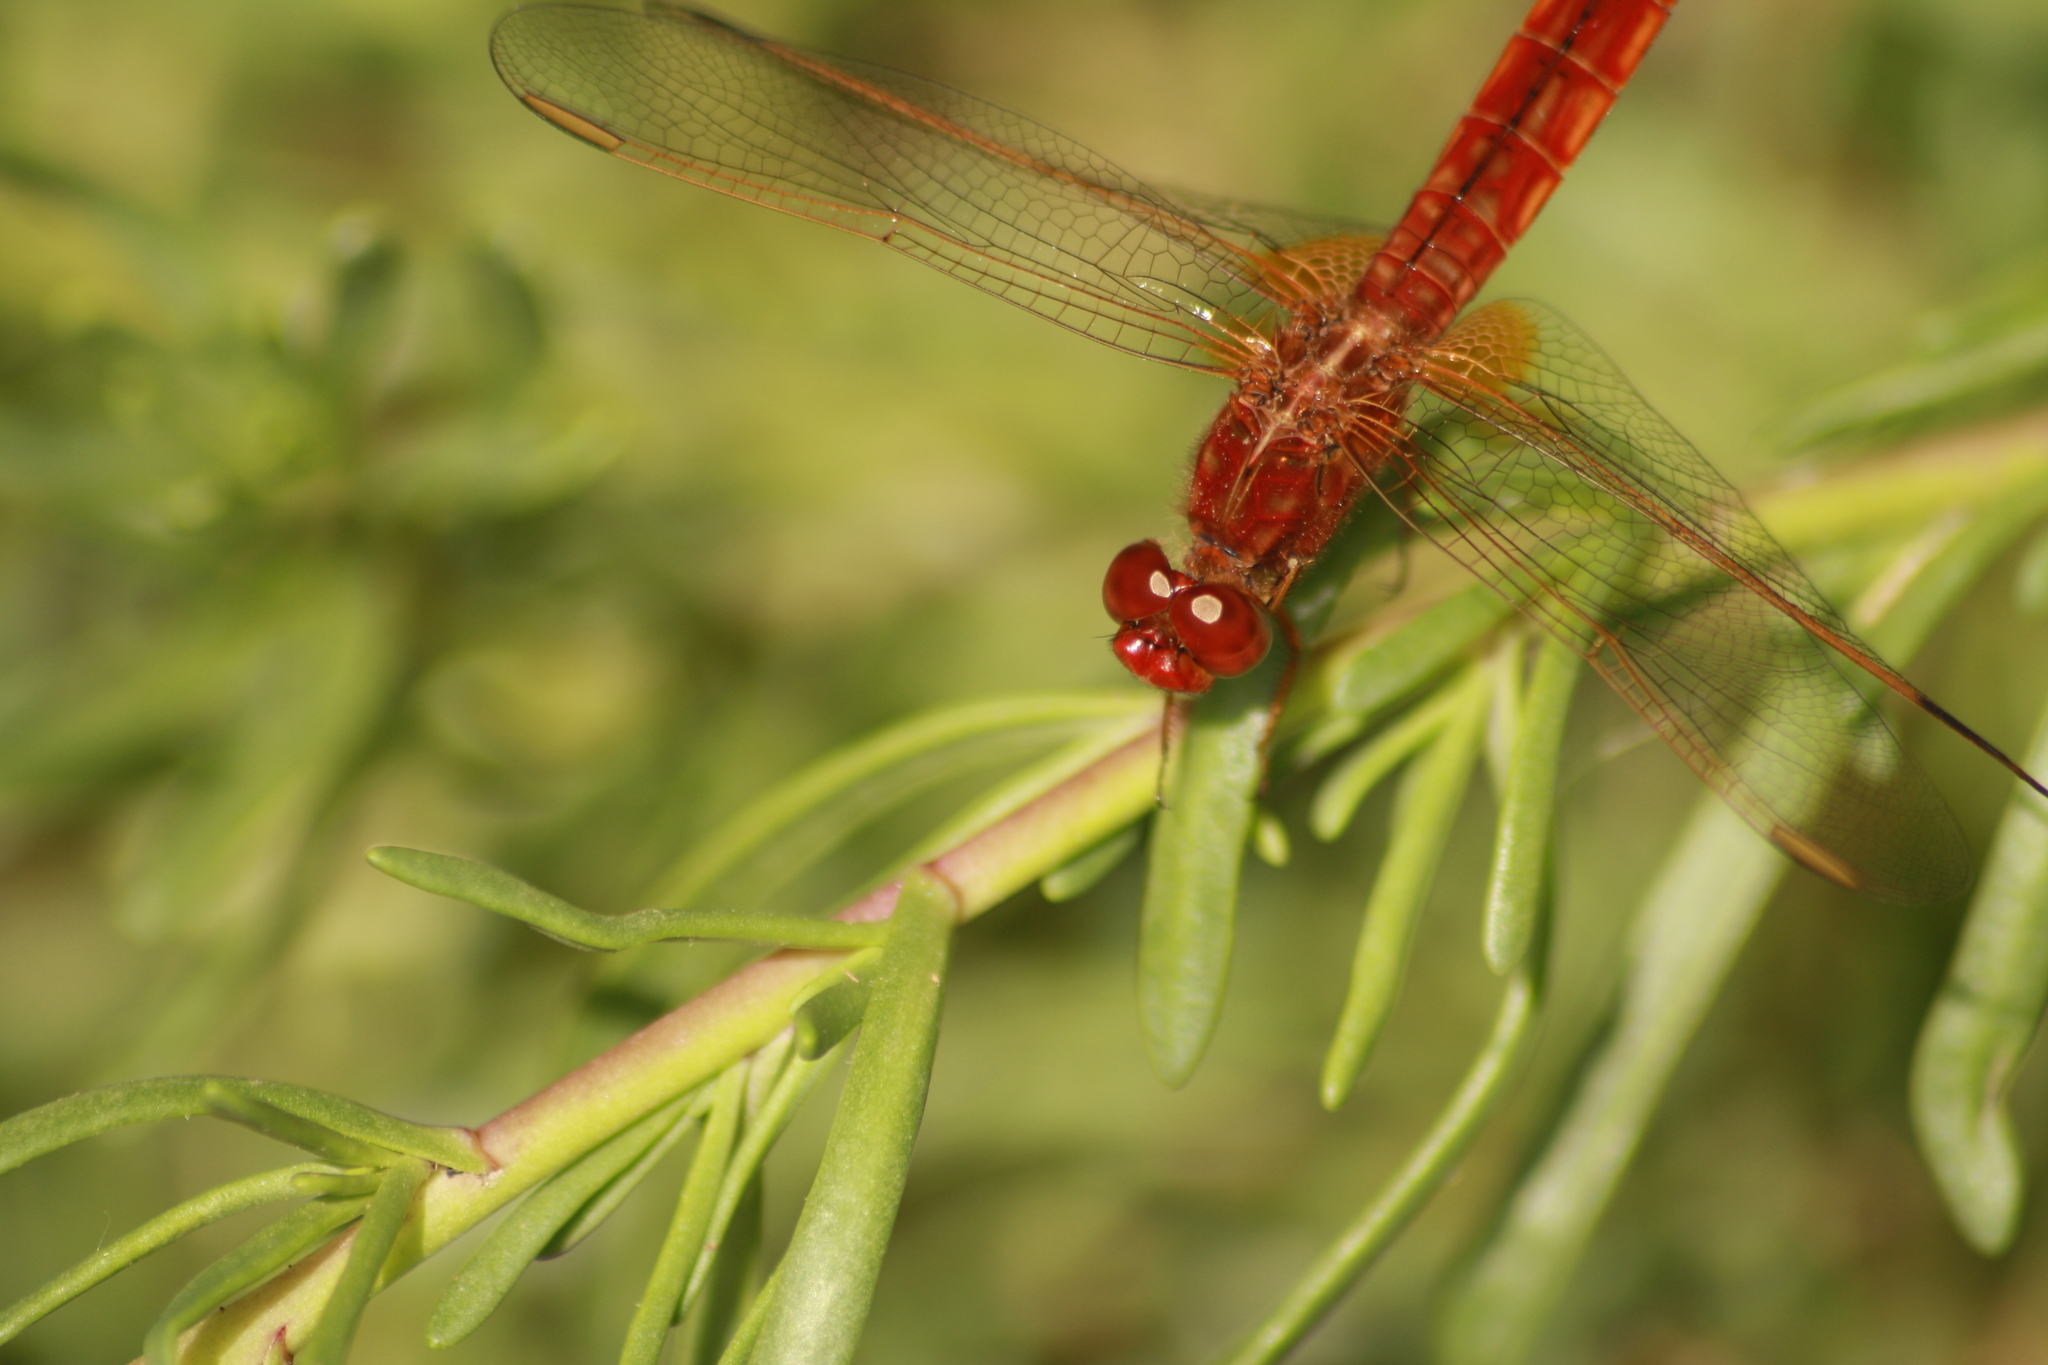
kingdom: Animalia
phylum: Arthropoda
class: Insecta
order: Odonata
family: Libellulidae
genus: Crocothemis
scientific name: Crocothemis erythraea
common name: Scarlet dragonfly
